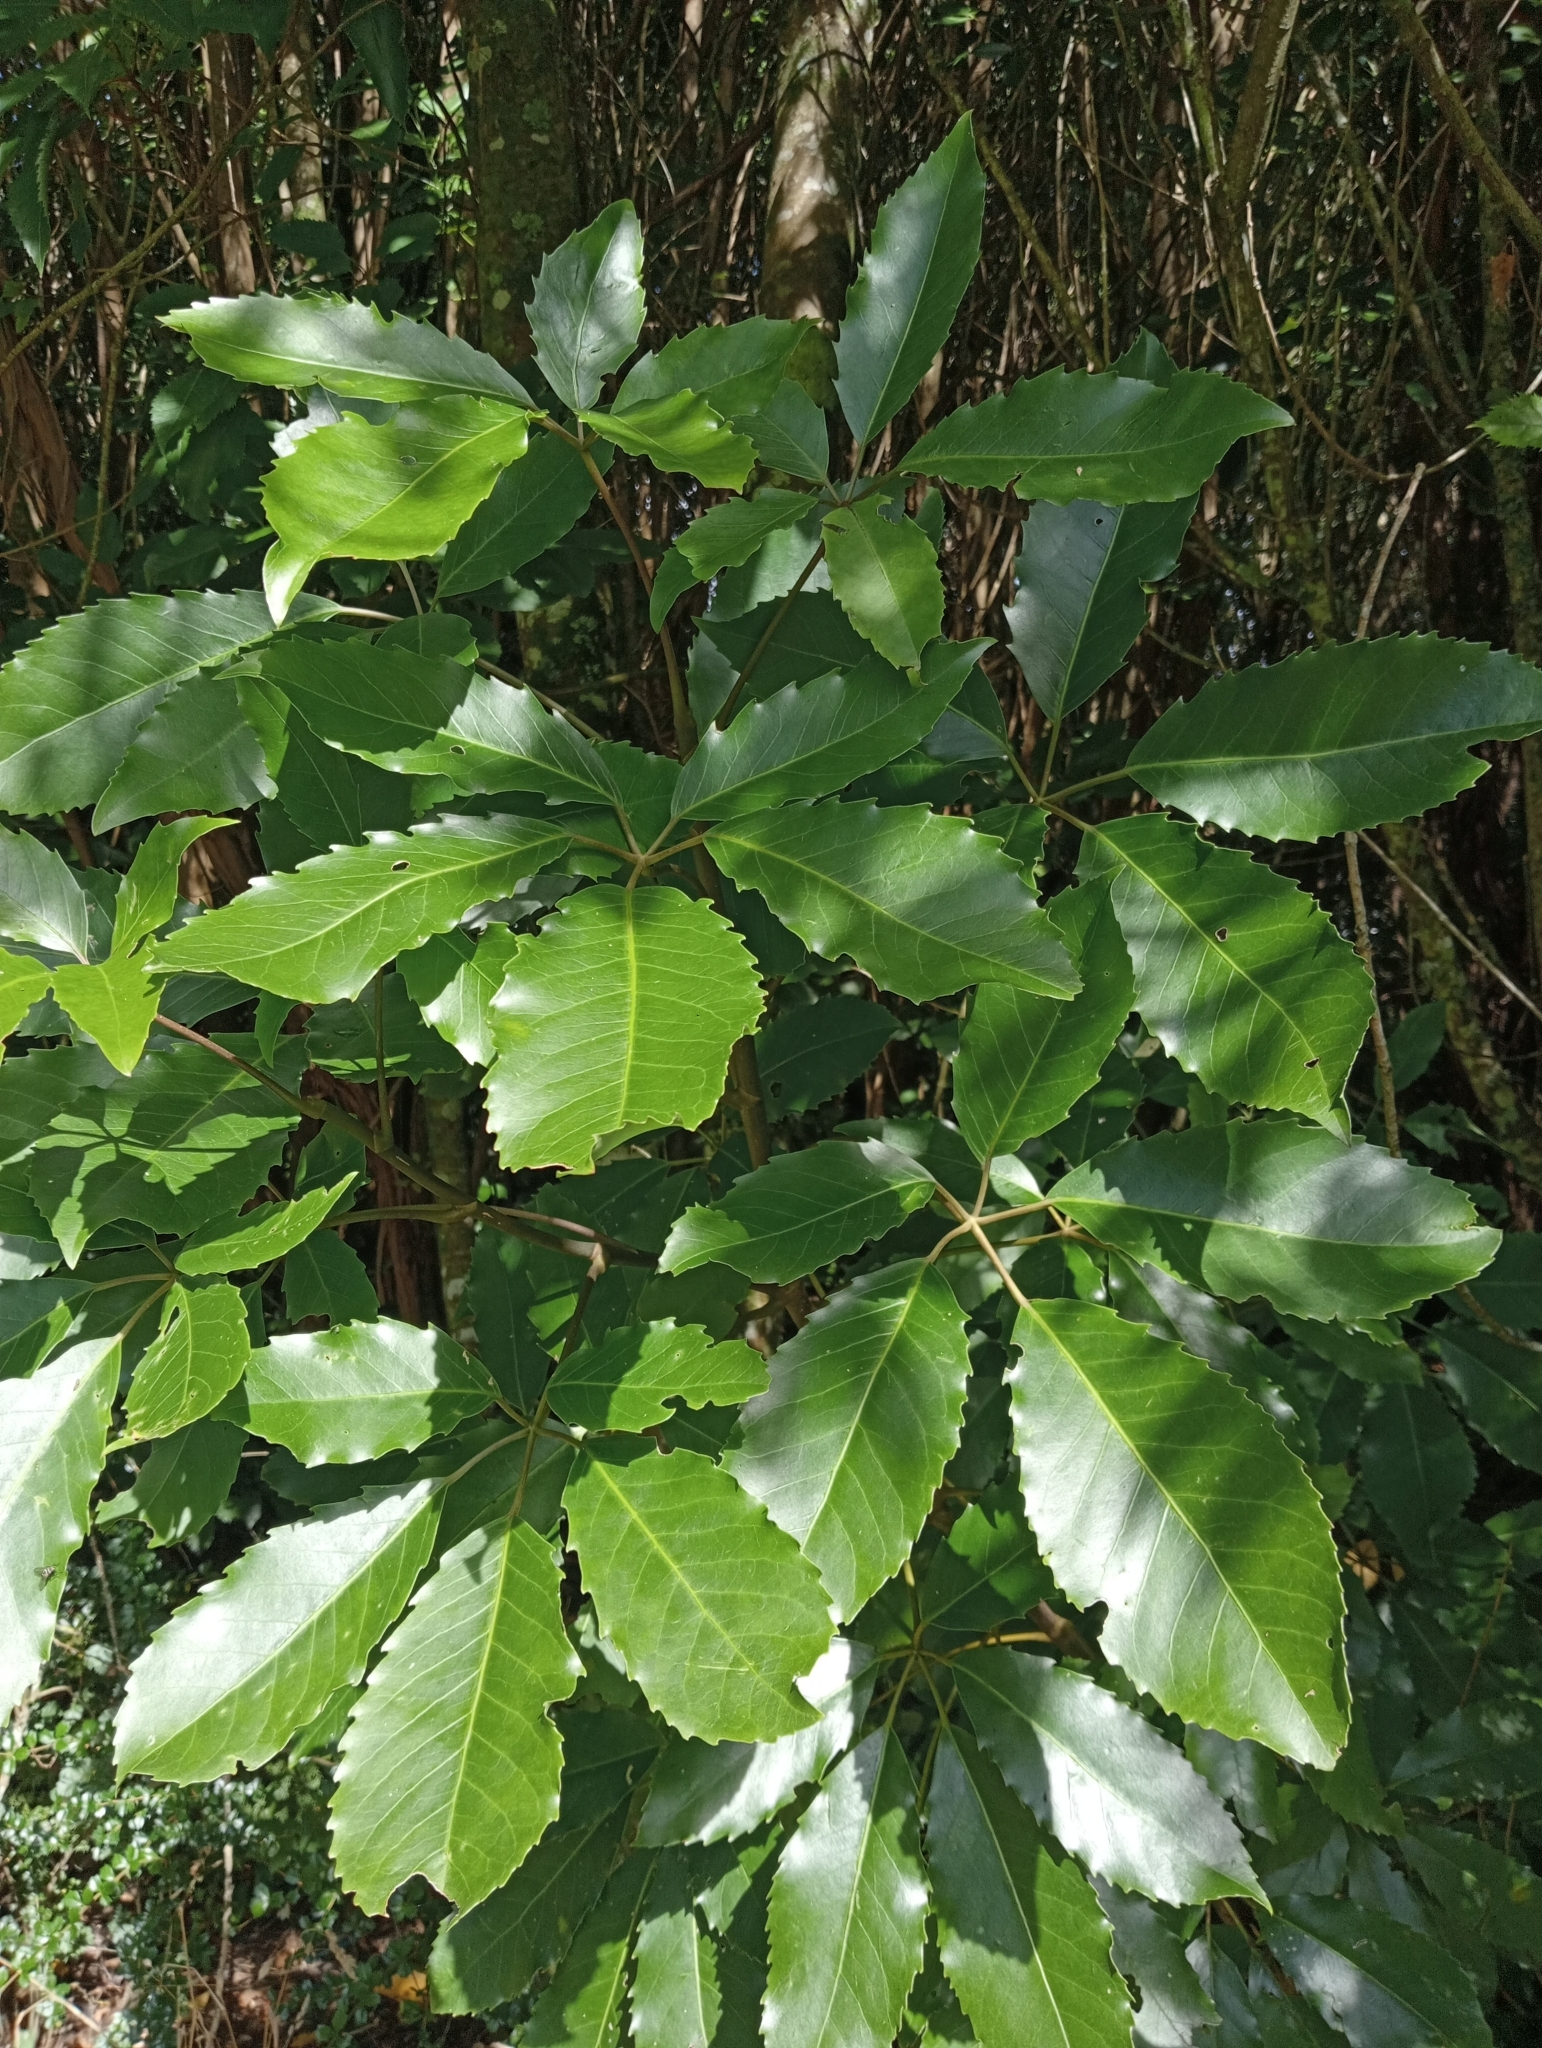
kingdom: Plantae
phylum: Tracheophyta
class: Magnoliopsida
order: Apiales
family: Araliaceae
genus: Neopanax
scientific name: Neopanax arboreus
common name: Five-fingers
